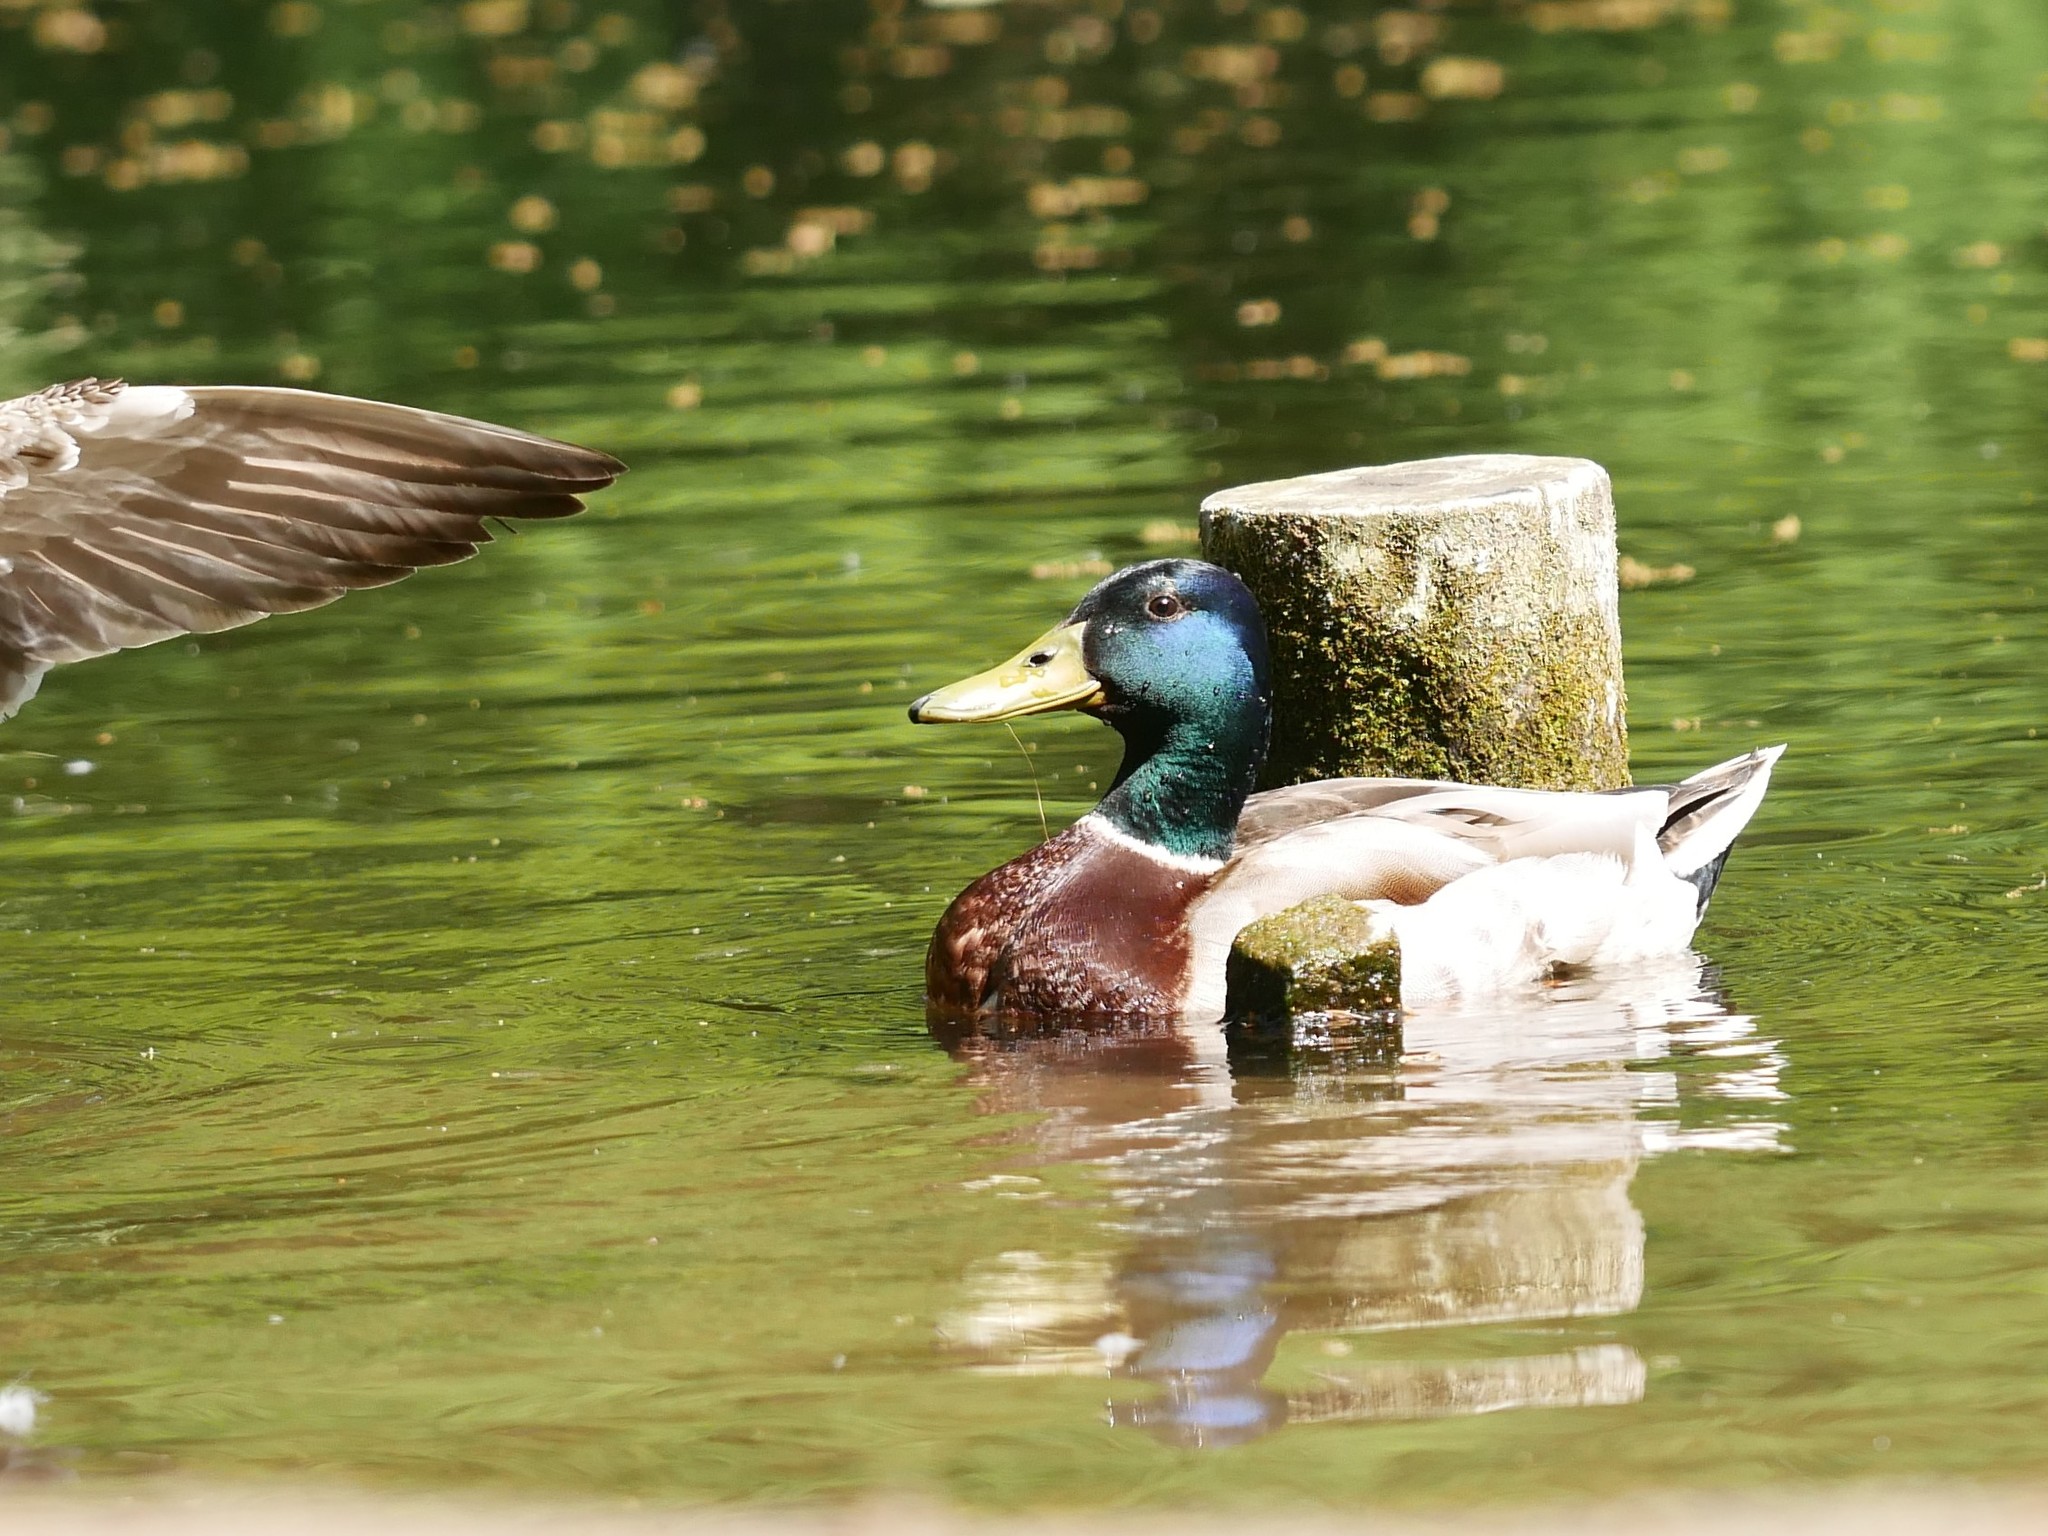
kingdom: Animalia
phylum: Chordata
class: Aves
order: Anseriformes
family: Anatidae
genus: Anas
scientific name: Anas platyrhynchos
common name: Mallard
